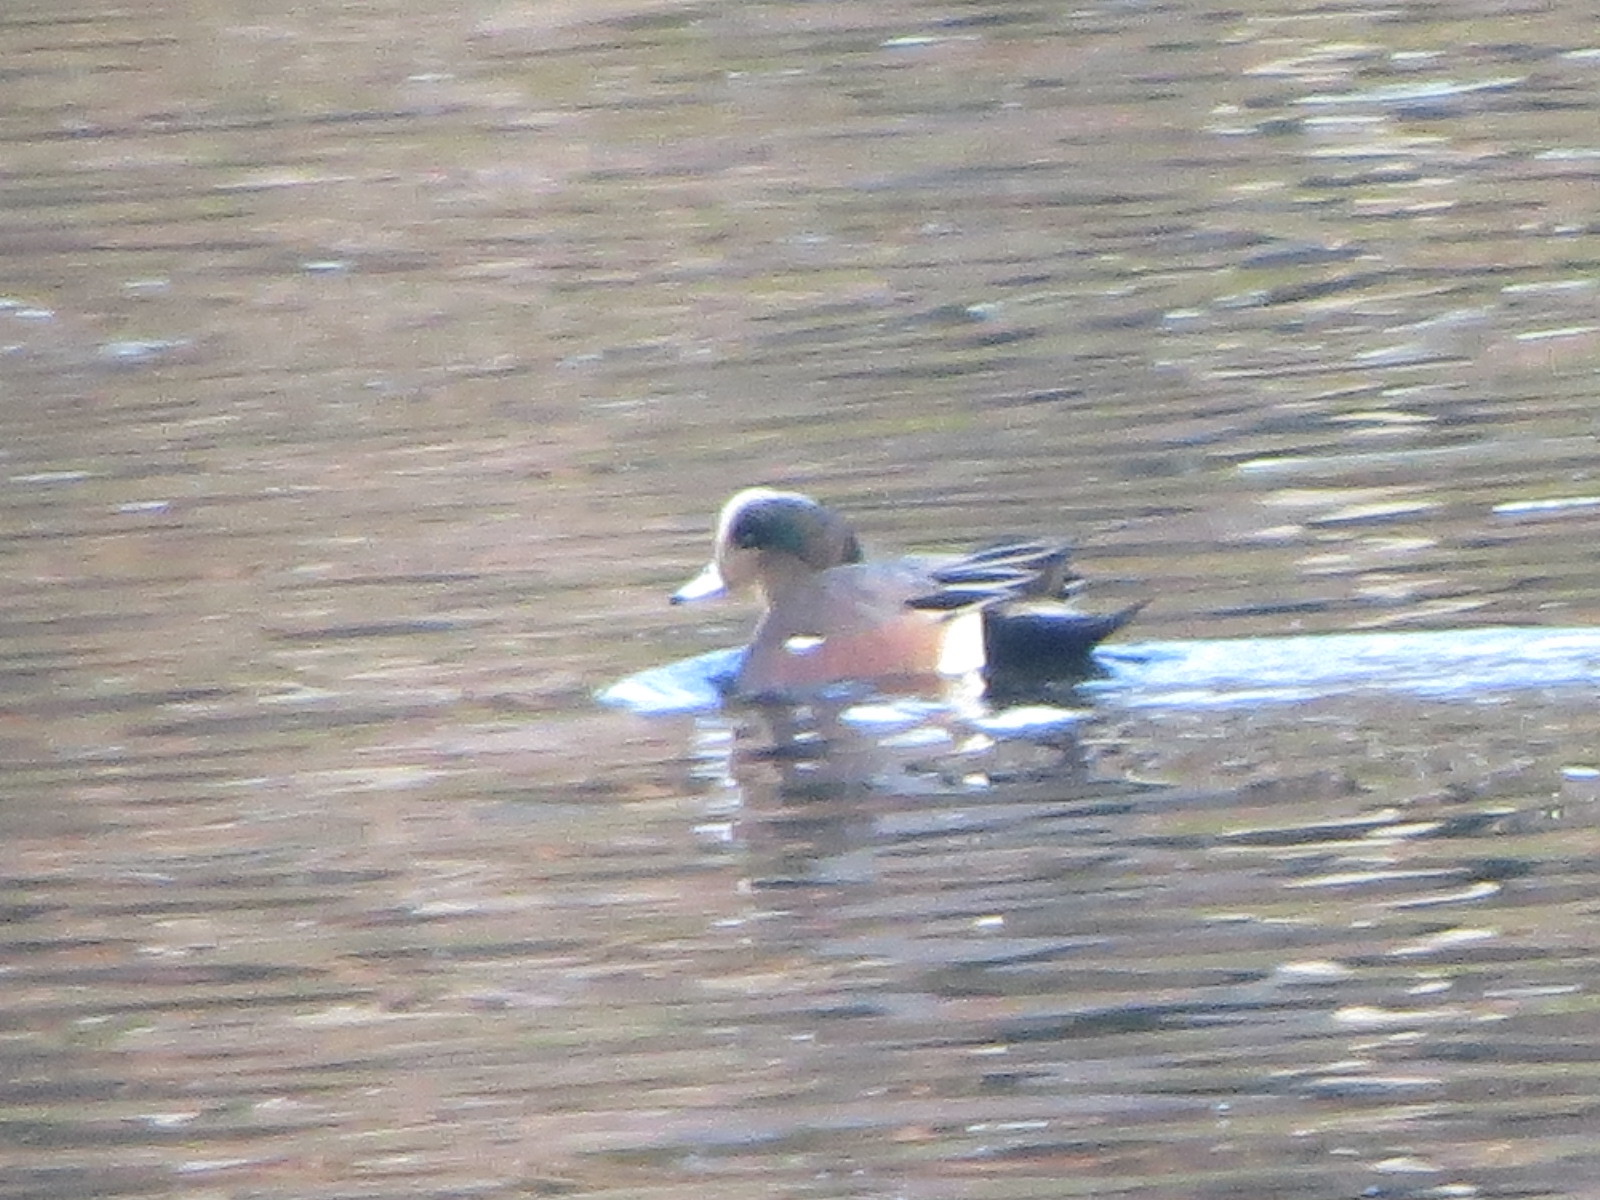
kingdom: Animalia
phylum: Chordata
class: Aves
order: Anseriformes
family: Anatidae
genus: Mareca
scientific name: Mareca americana
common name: American wigeon
